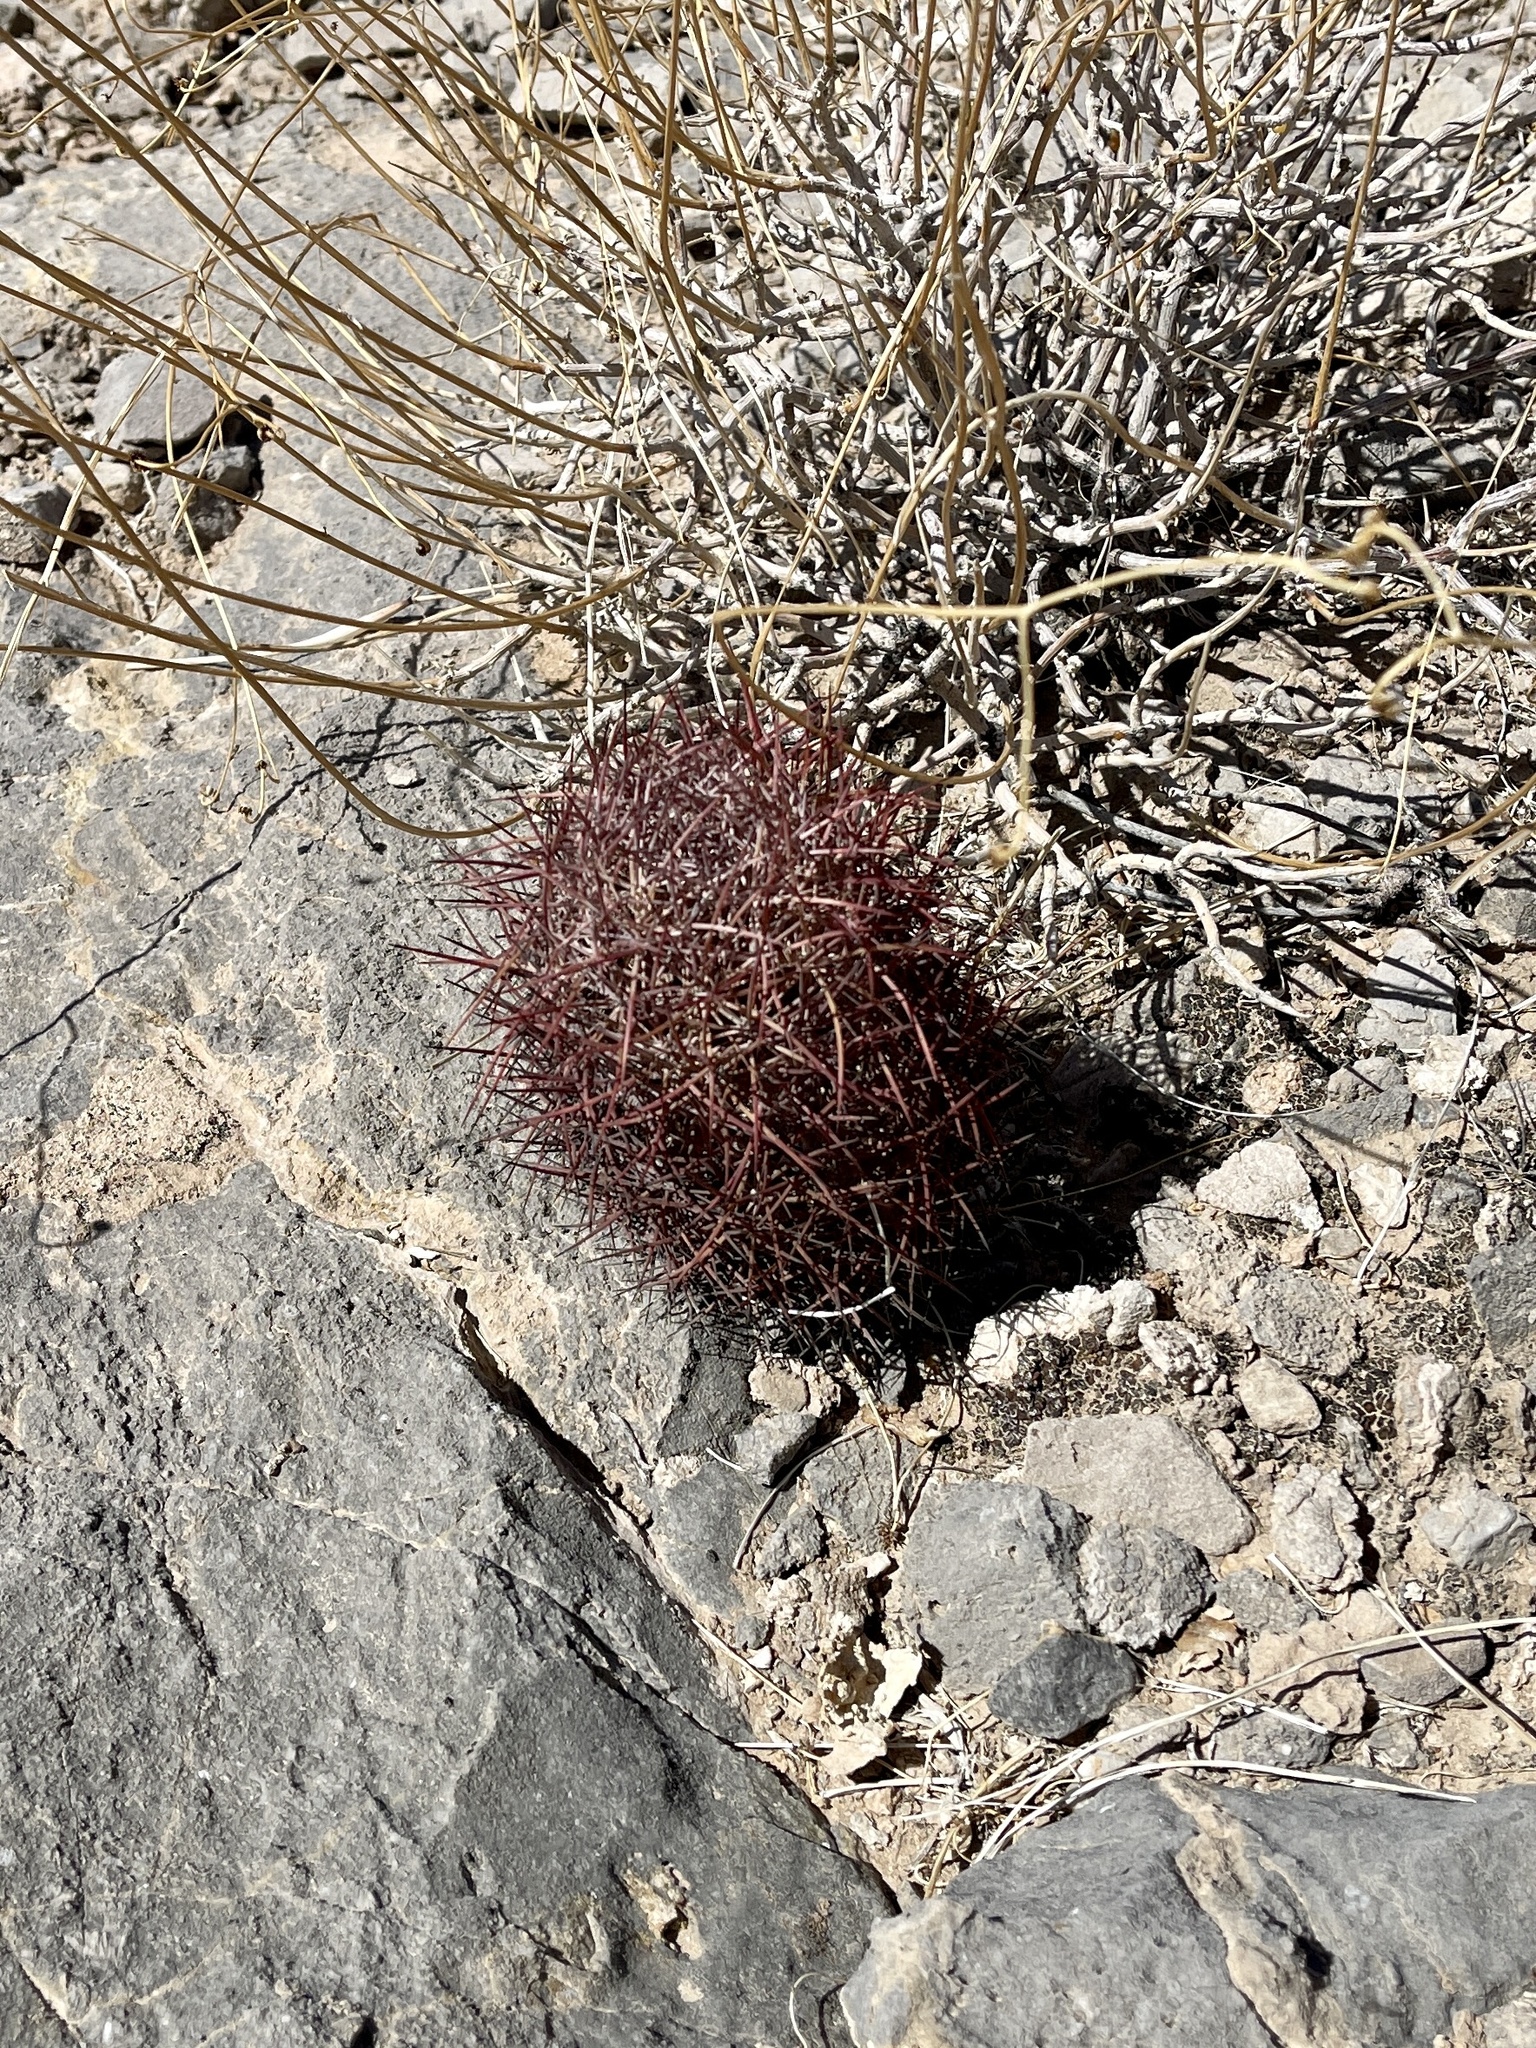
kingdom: Plantae
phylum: Tracheophyta
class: Magnoliopsida
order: Caryophyllales
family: Cactaceae
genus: Sclerocactus
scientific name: Sclerocactus johnsonii
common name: Eight-spine fishhook cactus
